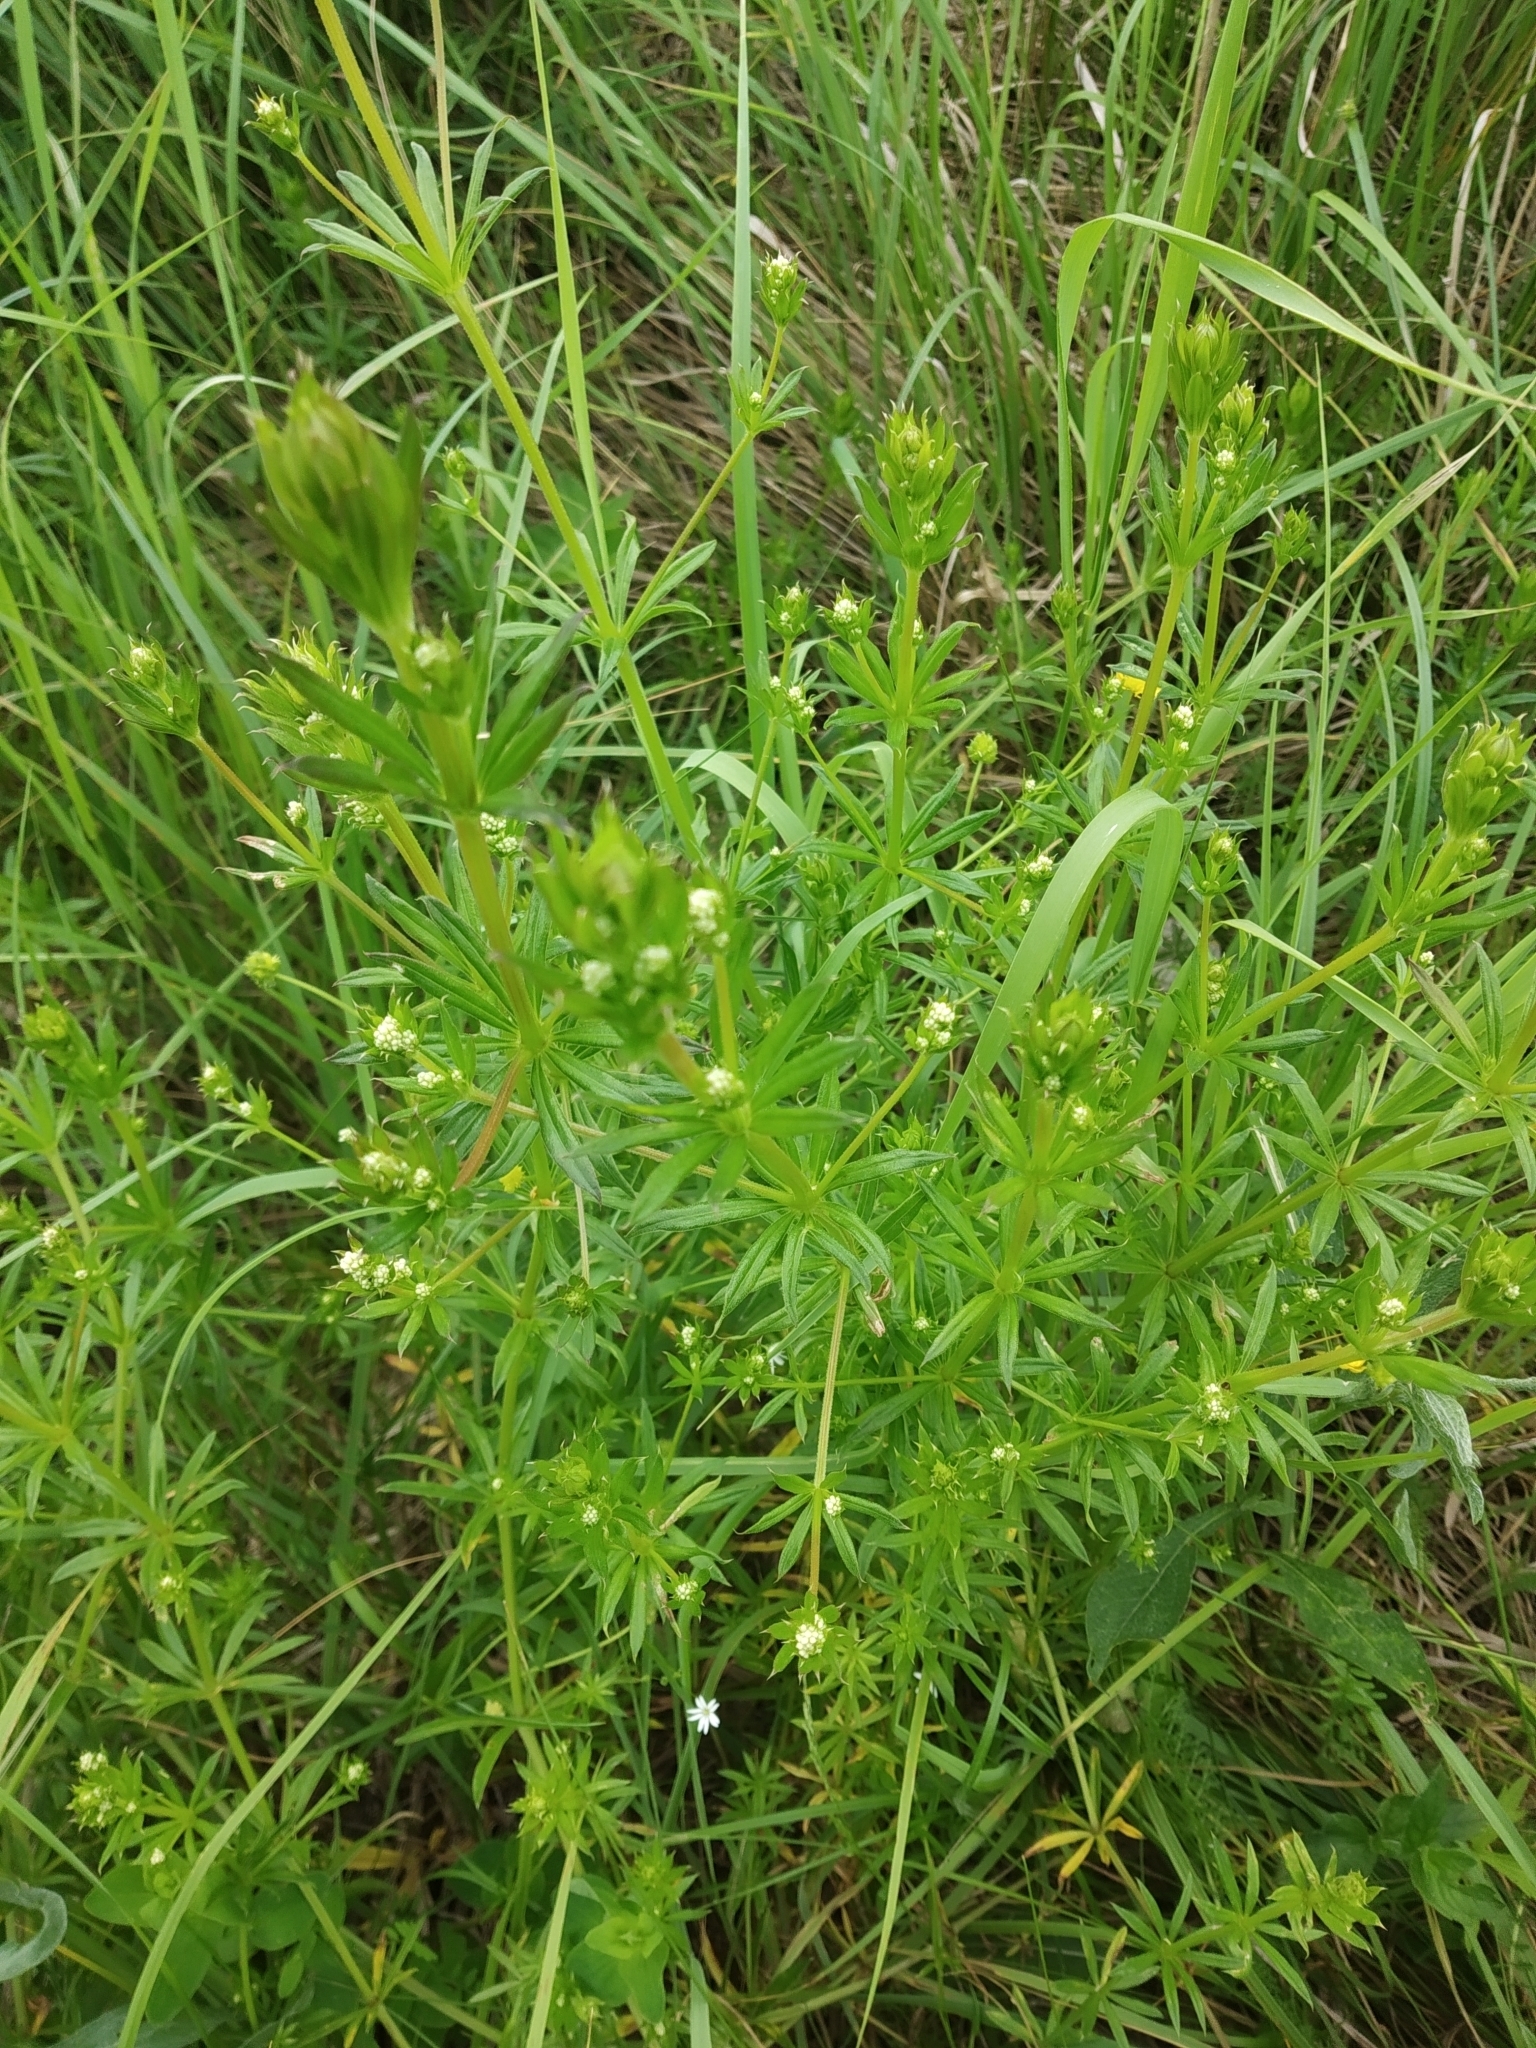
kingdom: Plantae
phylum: Tracheophyta
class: Magnoliopsida
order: Gentianales
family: Rubiaceae
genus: Galium
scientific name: Galium rivale
